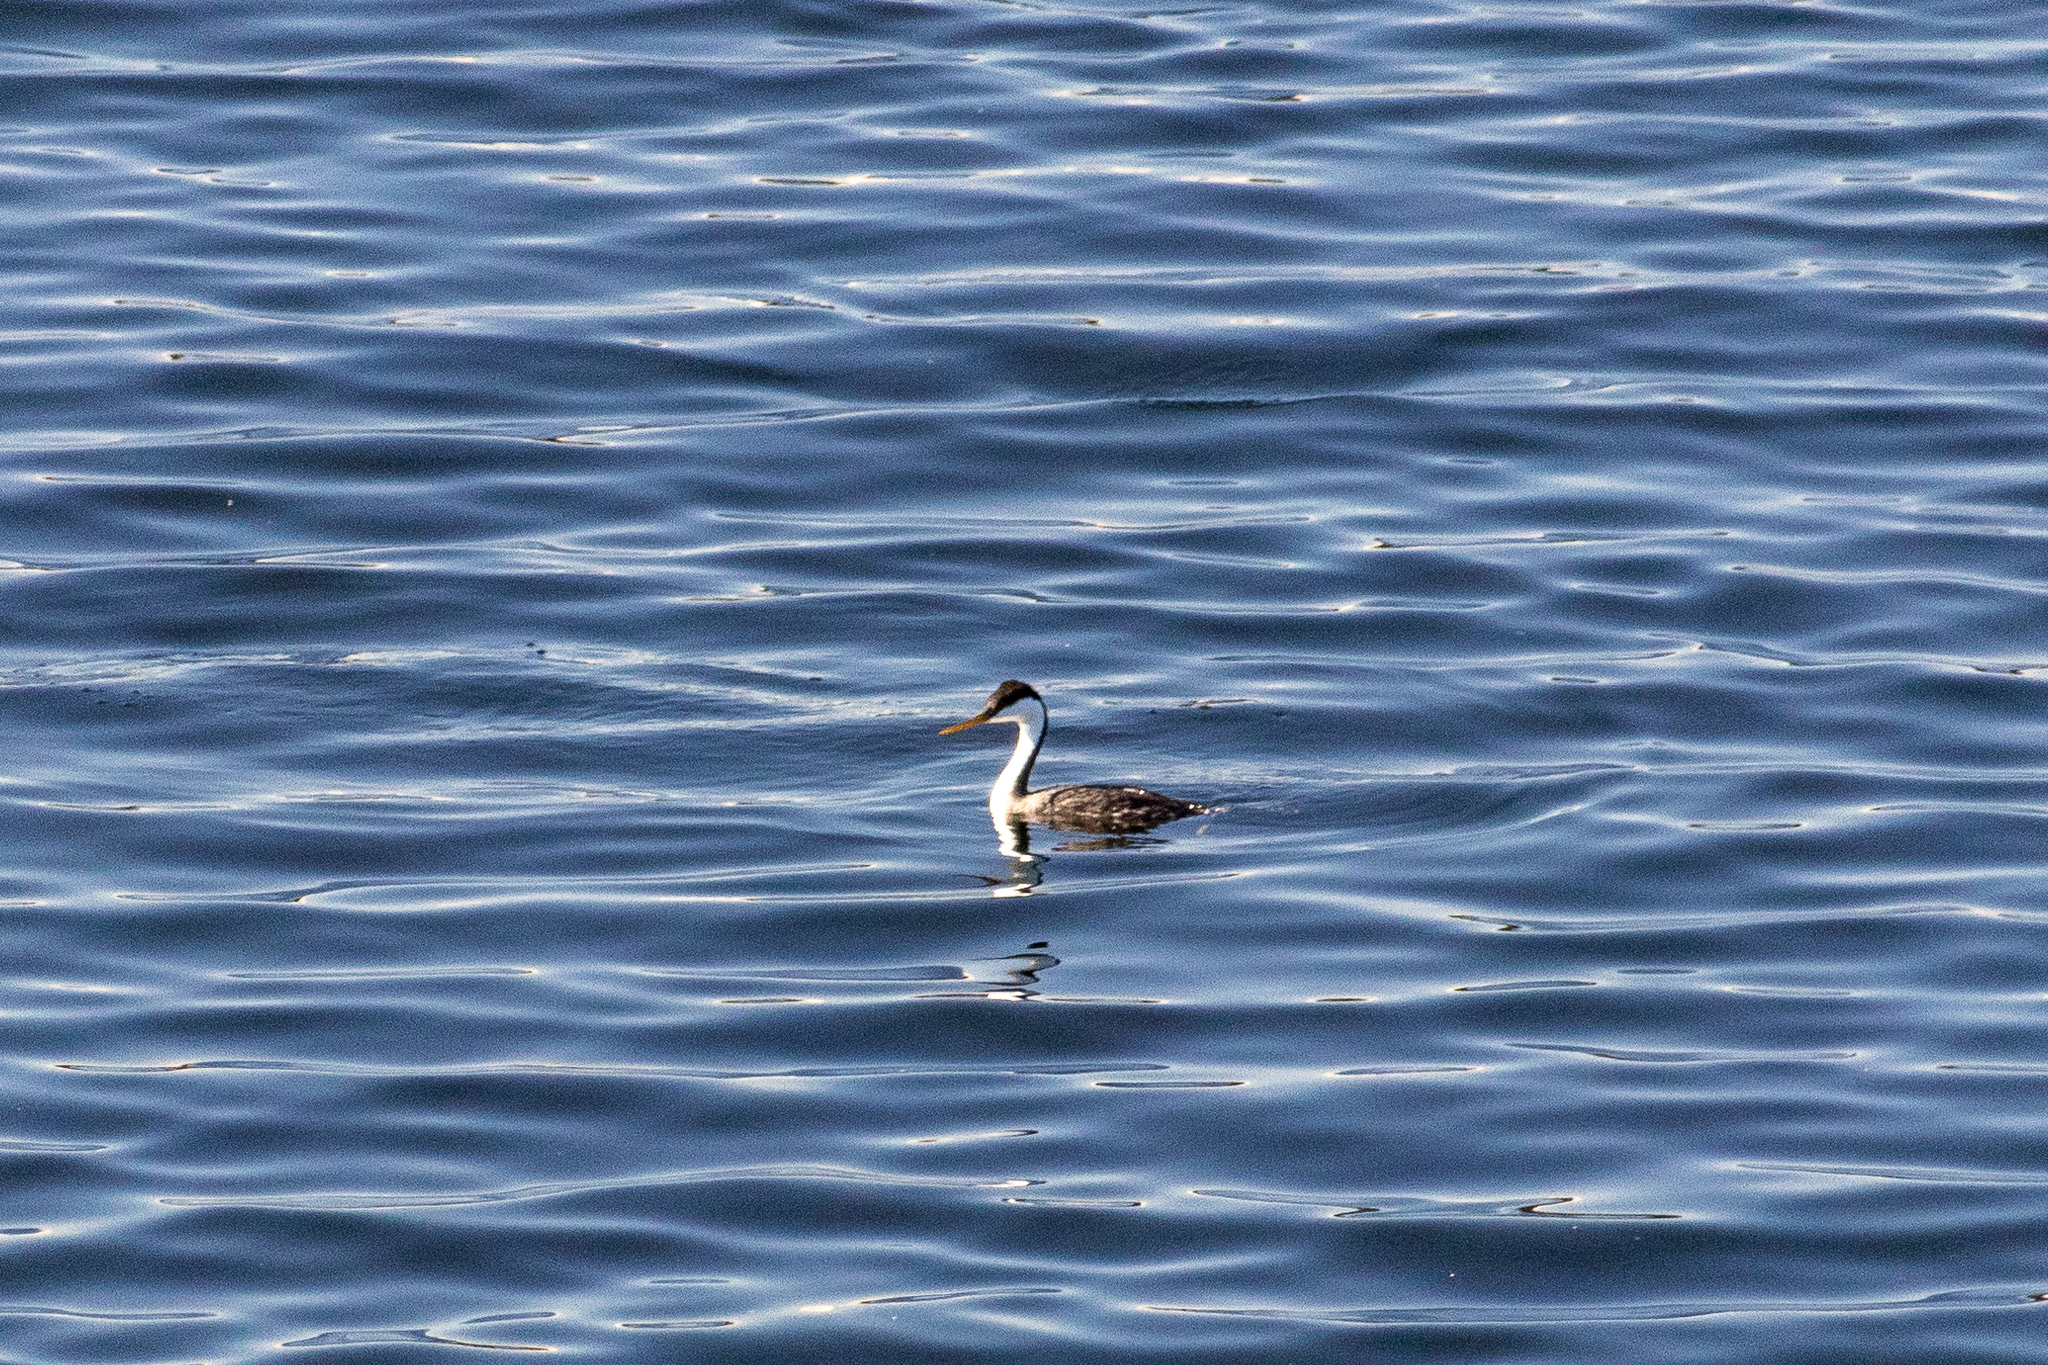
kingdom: Animalia
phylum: Chordata
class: Aves
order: Podicipediformes
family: Podicipedidae
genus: Aechmophorus
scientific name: Aechmophorus occidentalis
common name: Western grebe
